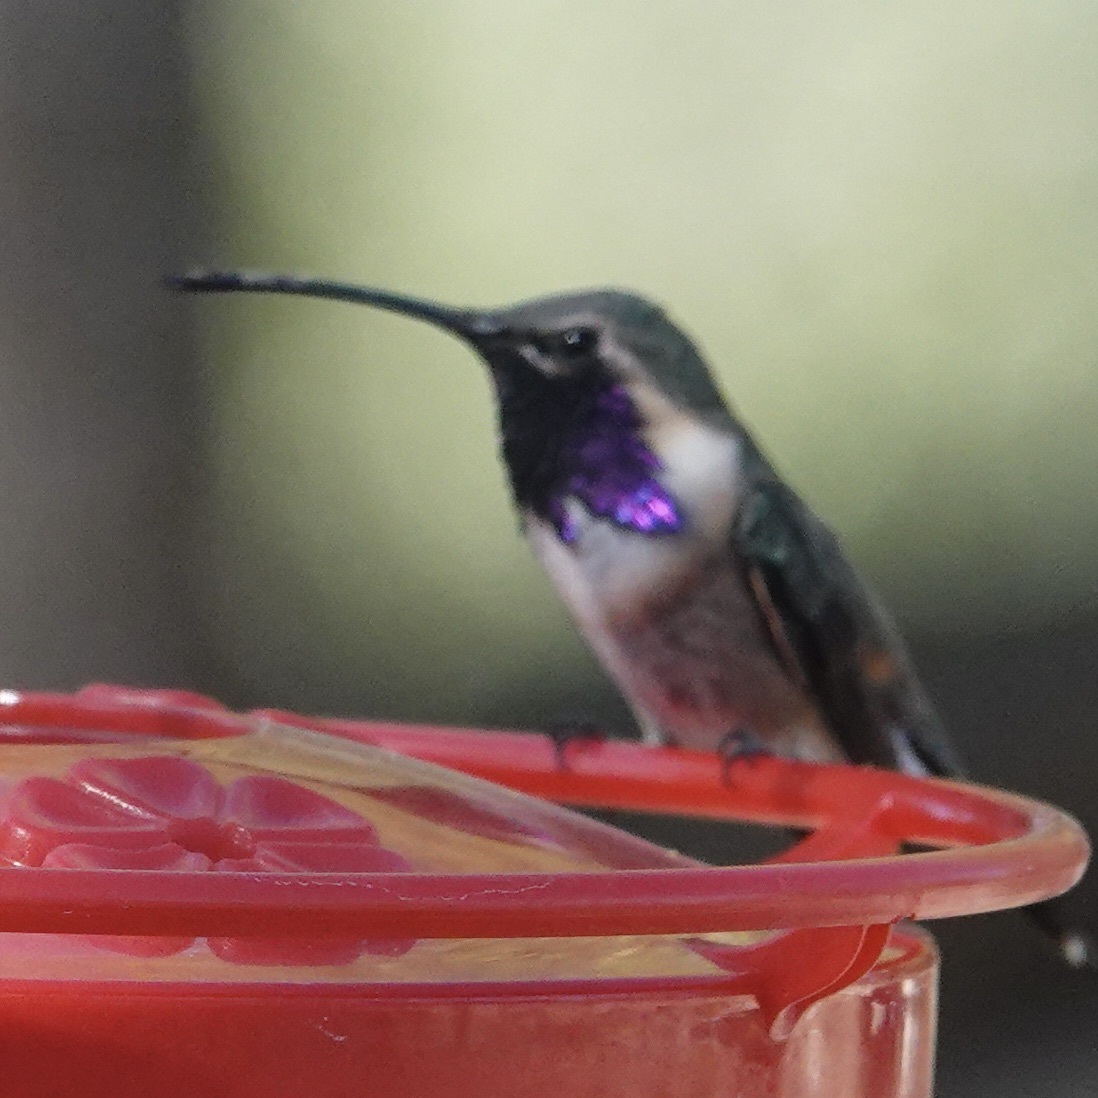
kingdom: Animalia
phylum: Chordata
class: Aves
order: Apodiformes
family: Trochilidae
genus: Calothorax
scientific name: Calothorax lucifer
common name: Lucifer sheartail
